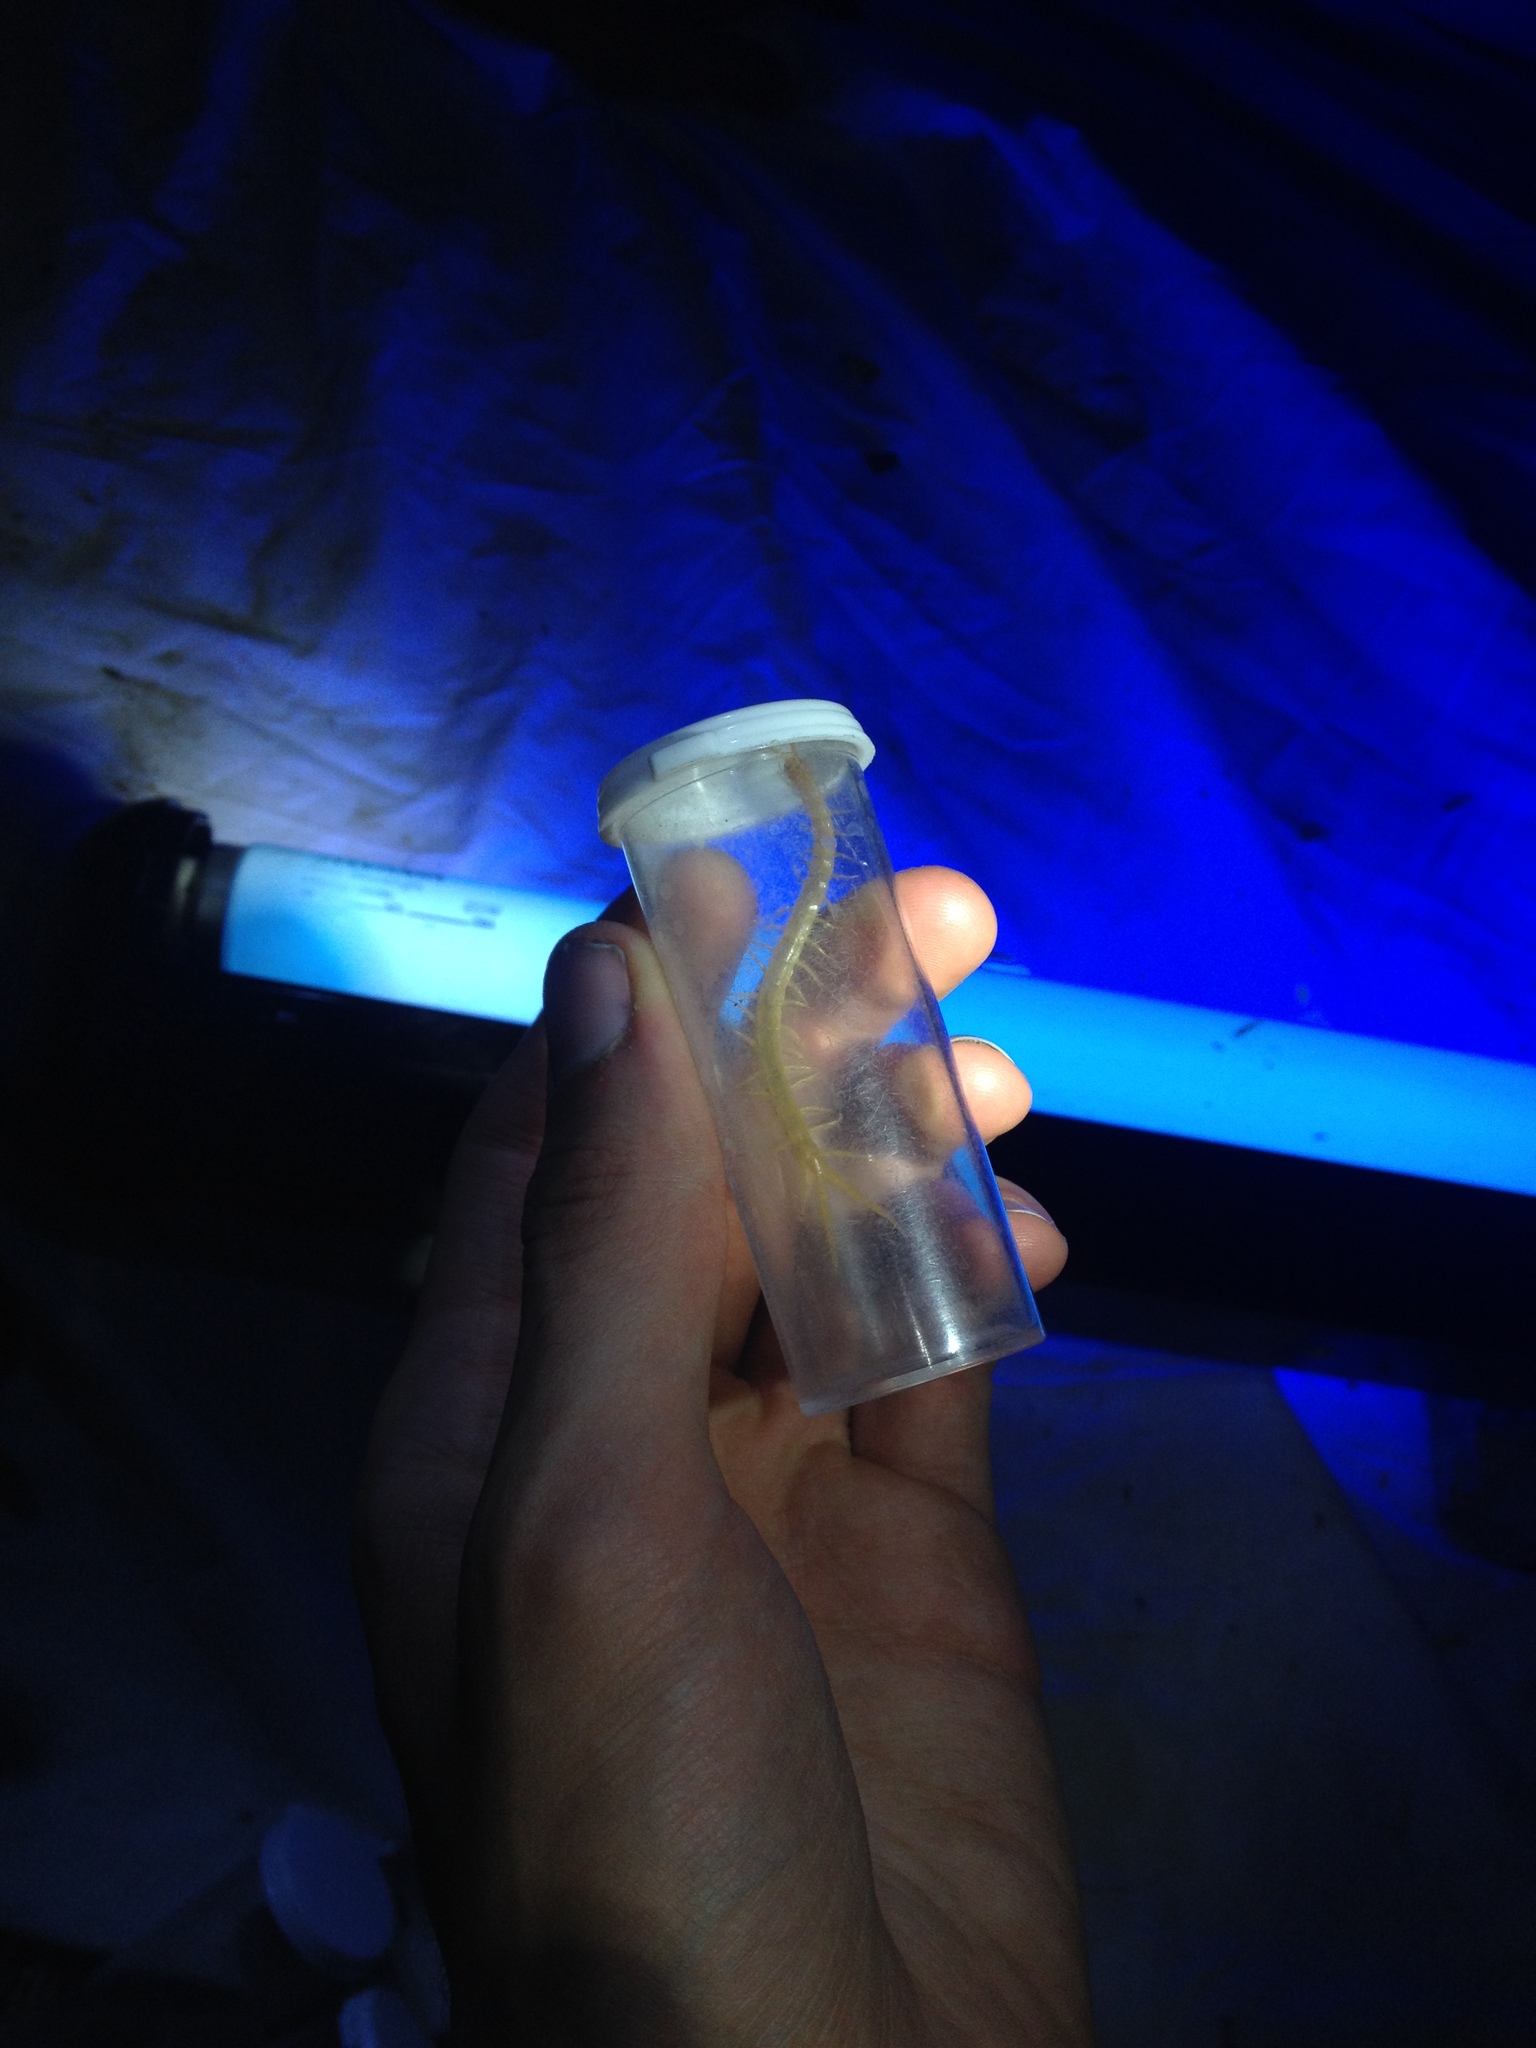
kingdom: Animalia
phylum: Arthropoda
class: Chilopoda
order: Scolopendromorpha
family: Scolopendridae
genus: Scolopendra
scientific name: Scolopendra polymorpha
